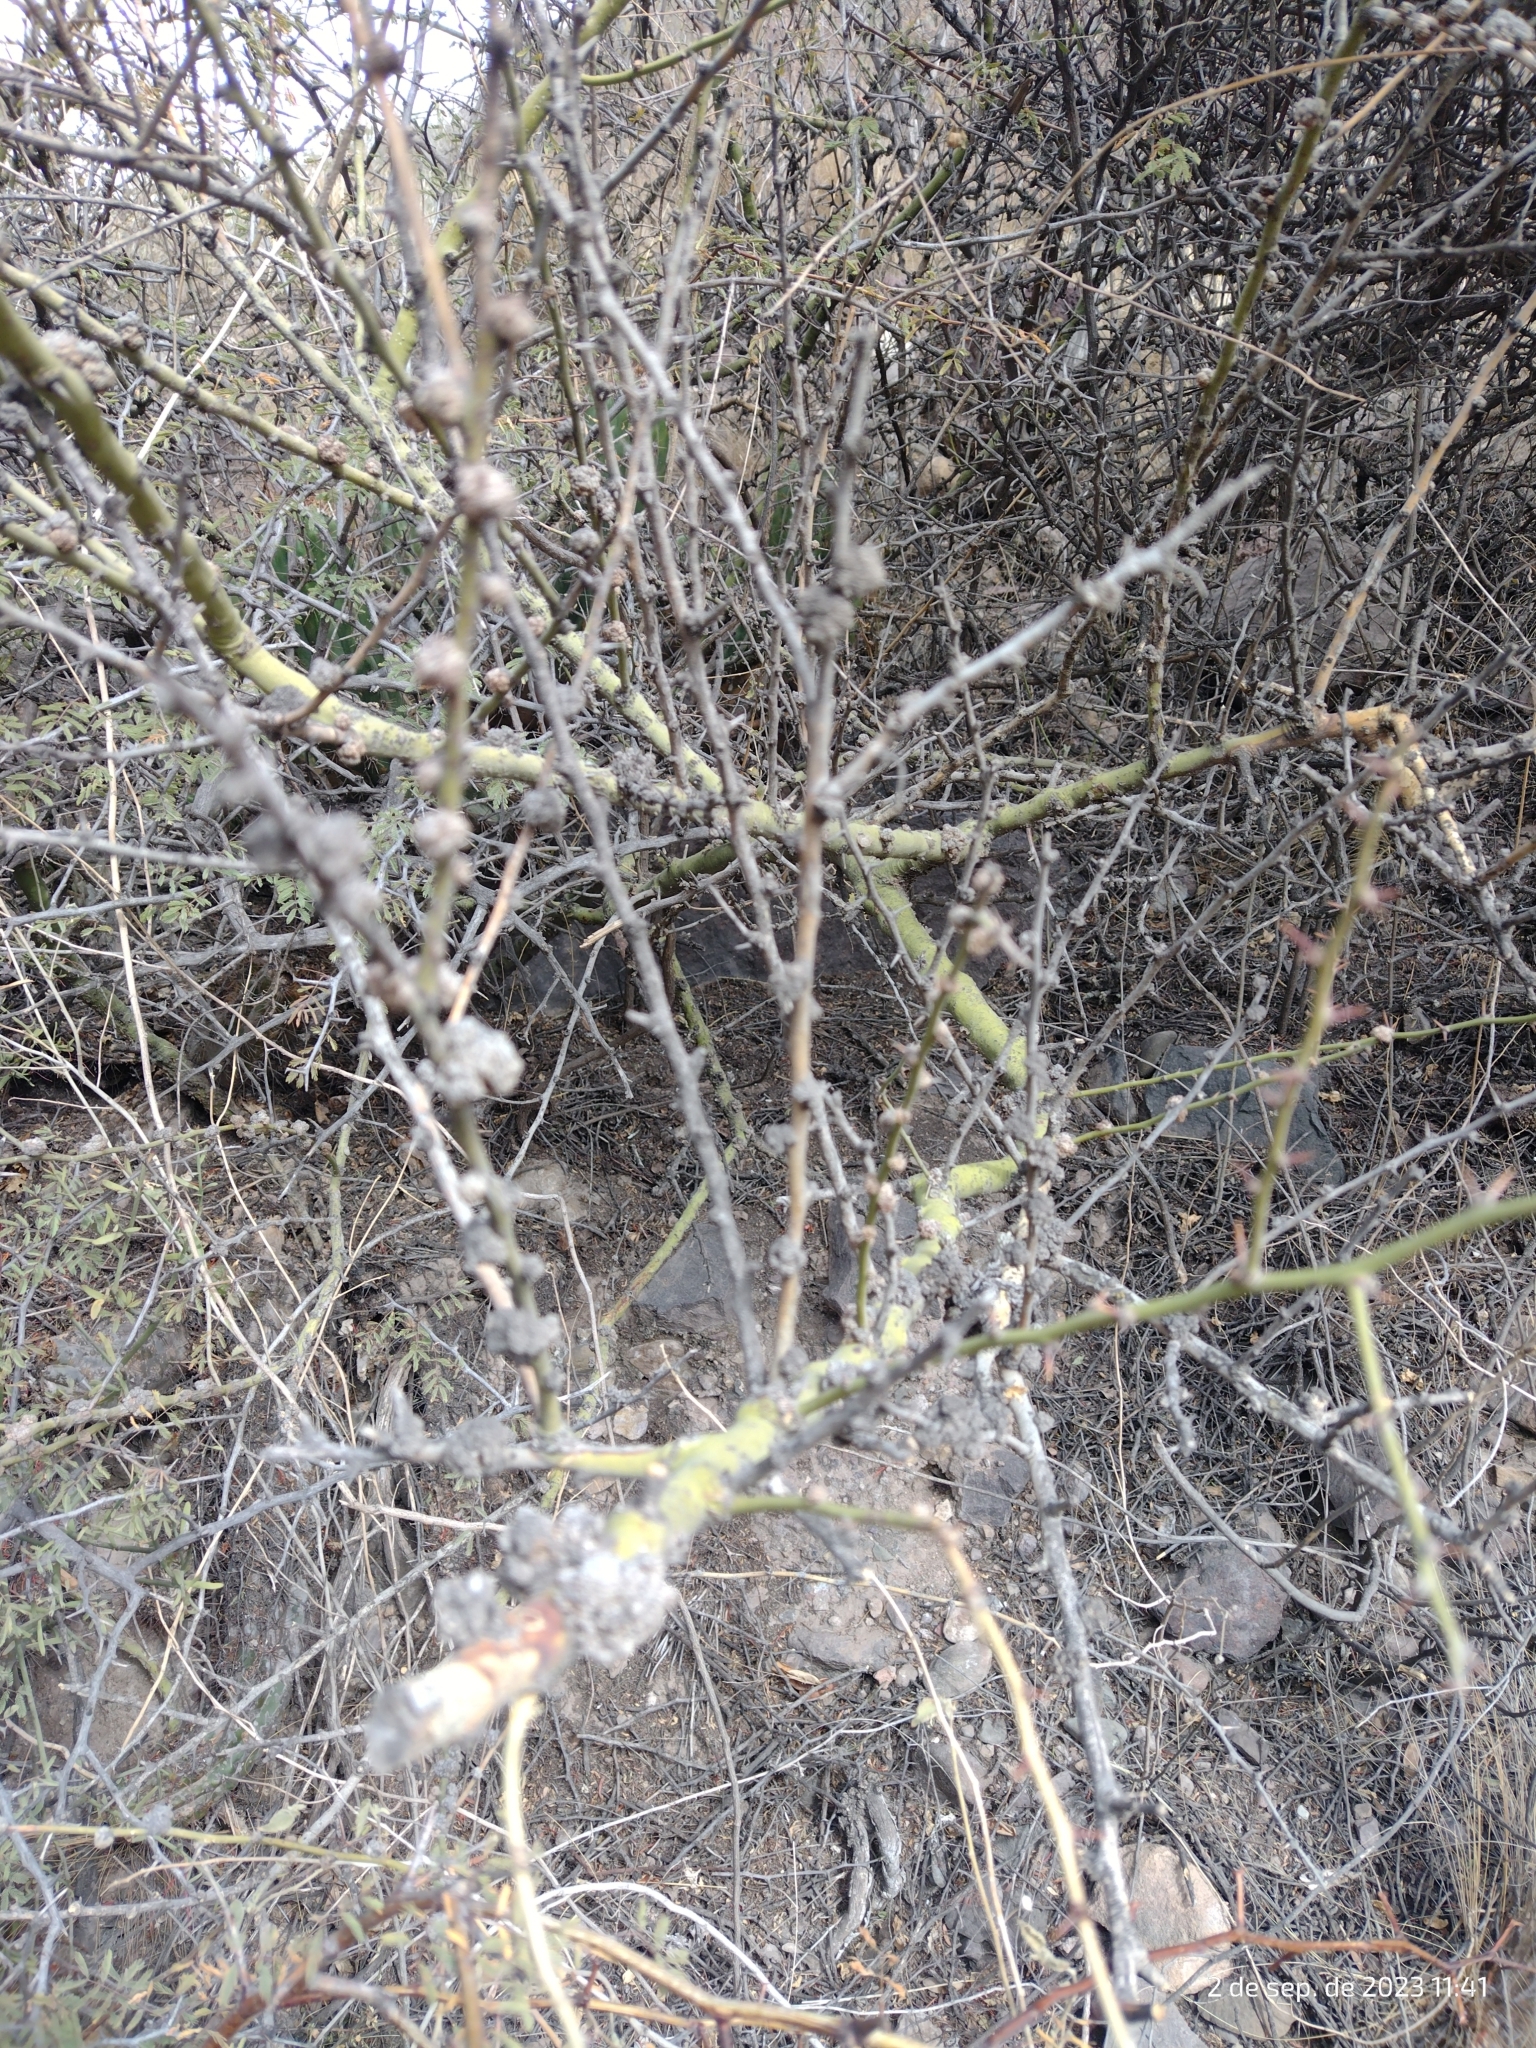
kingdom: Plantae
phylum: Tracheophyta
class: Magnoliopsida
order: Fabales
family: Fabaceae
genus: Parkinsonia
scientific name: Parkinsonia praecox
